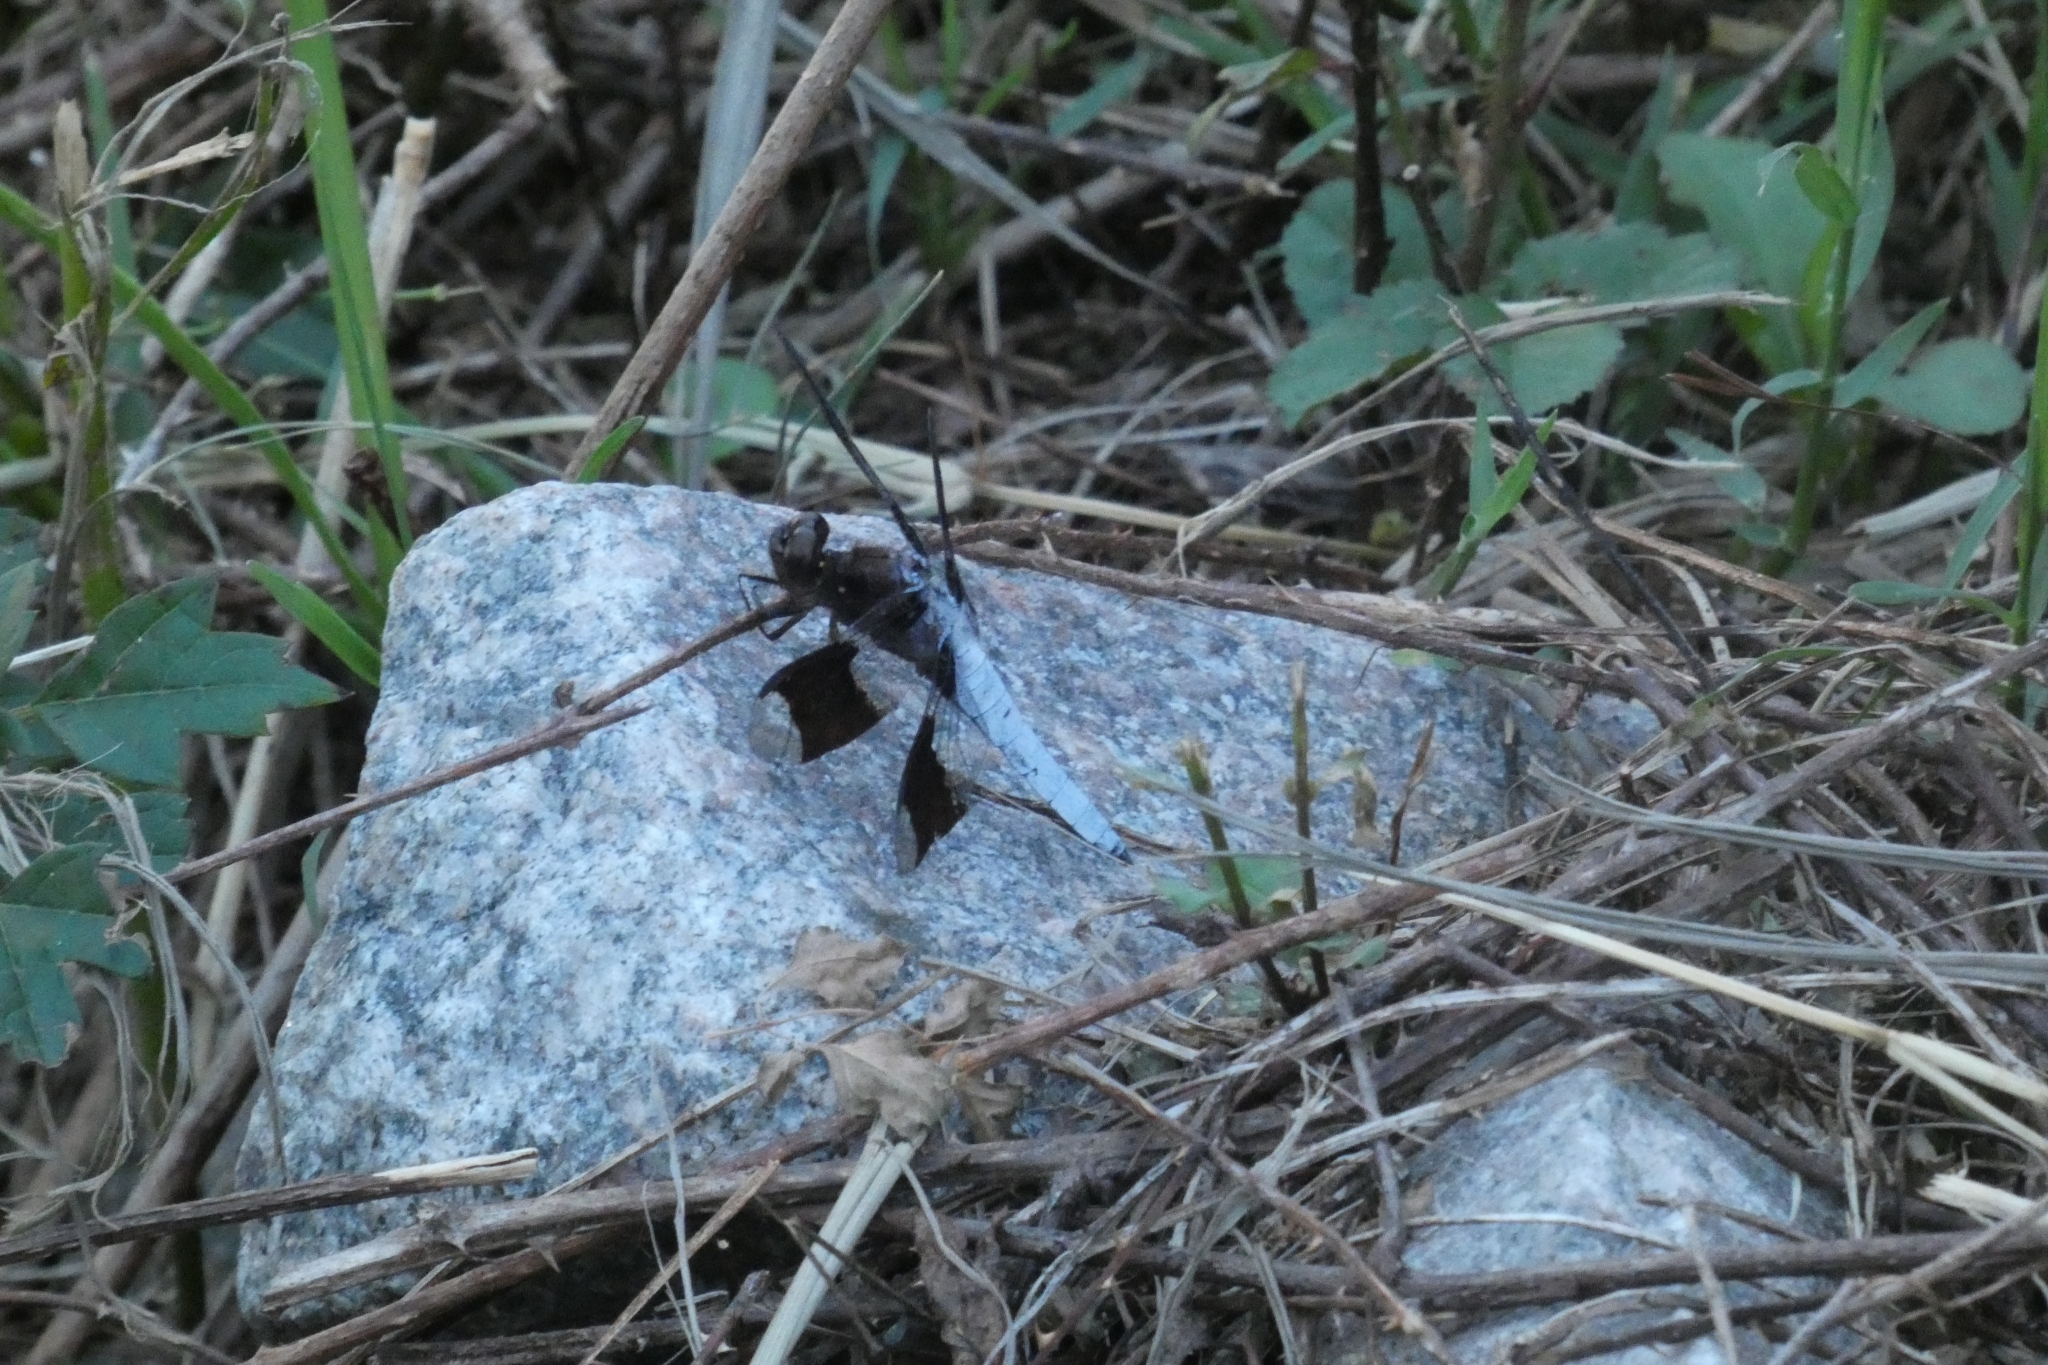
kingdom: Animalia
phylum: Arthropoda
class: Insecta
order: Odonata
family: Libellulidae
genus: Plathemis
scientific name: Plathemis lydia
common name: Common whitetail
